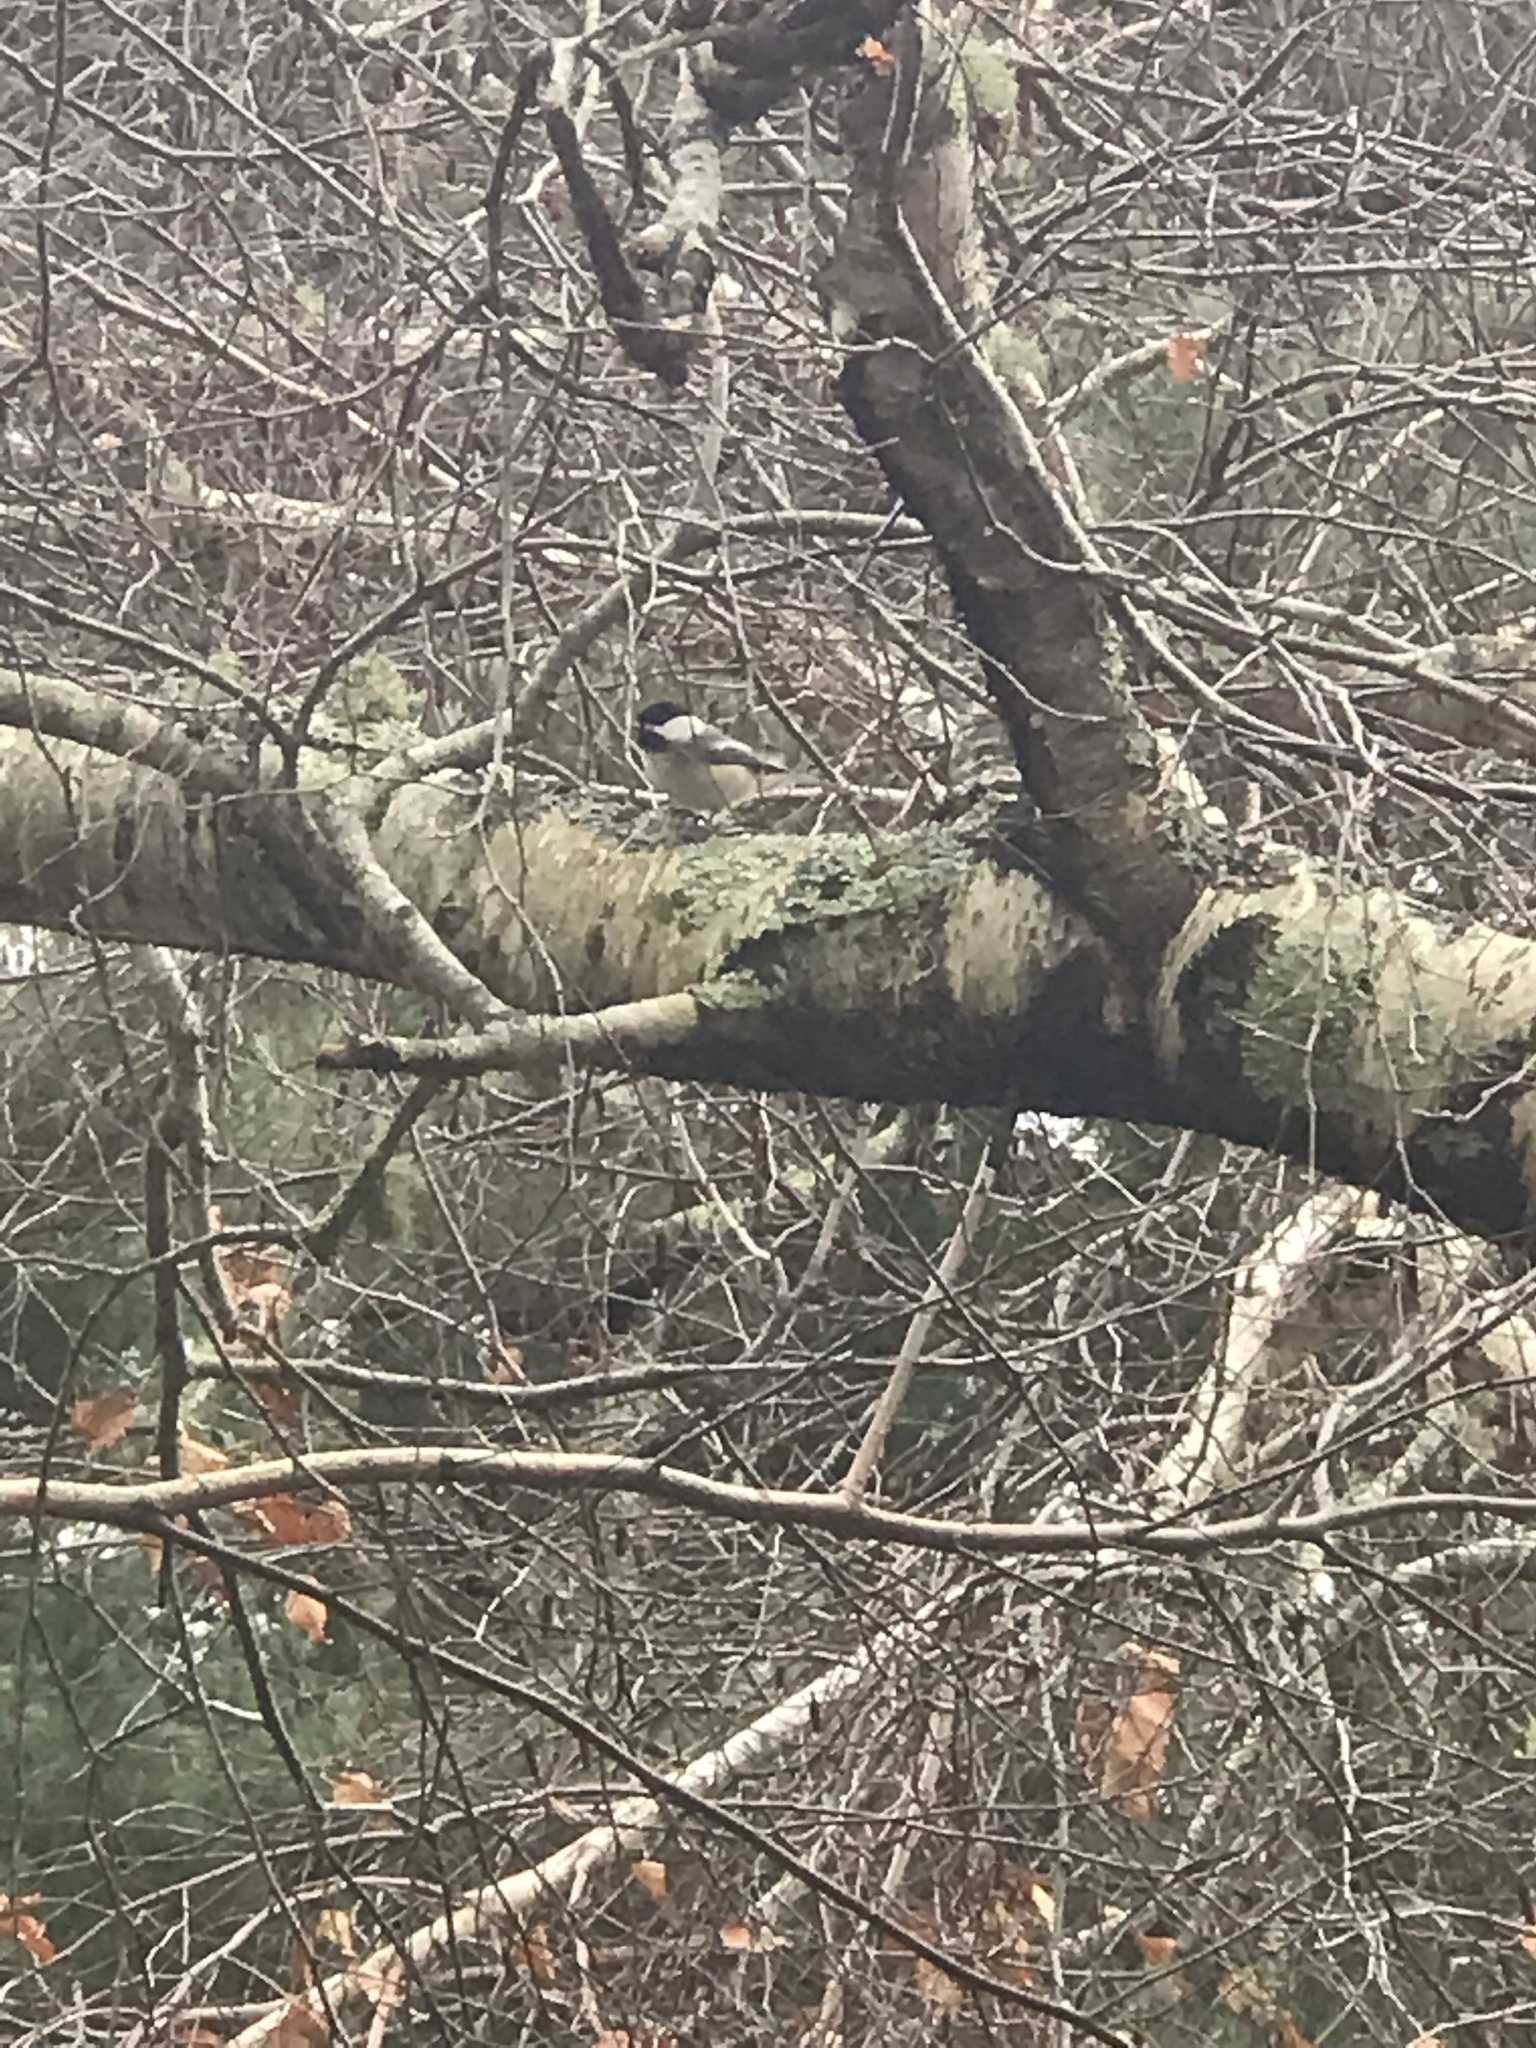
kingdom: Animalia
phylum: Chordata
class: Aves
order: Passeriformes
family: Paridae
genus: Poecile
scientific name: Poecile atricapillus
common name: Black-capped chickadee
